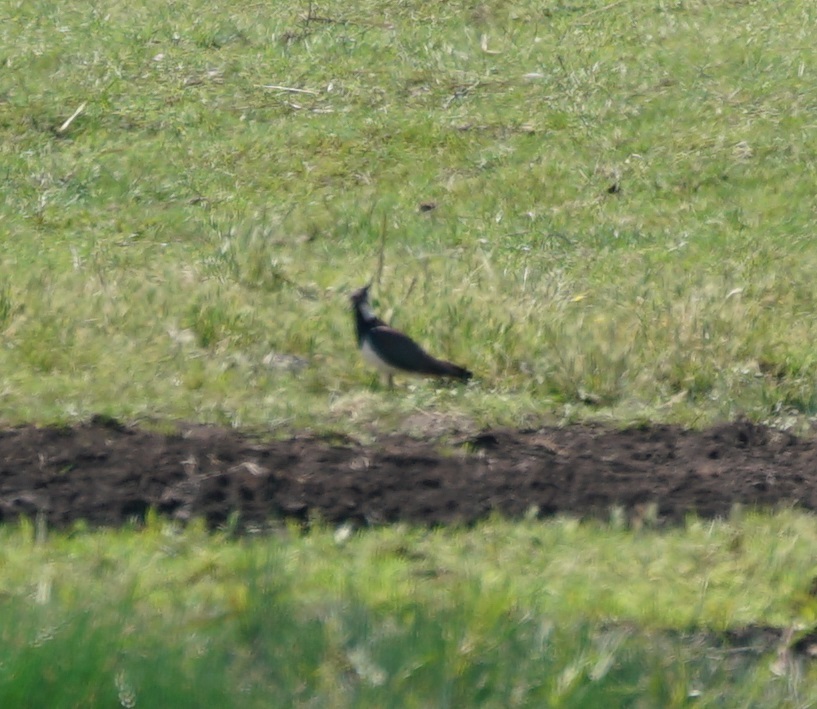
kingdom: Animalia
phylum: Chordata
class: Aves
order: Charadriiformes
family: Charadriidae
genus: Vanellus
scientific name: Vanellus vanellus
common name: Northern lapwing
